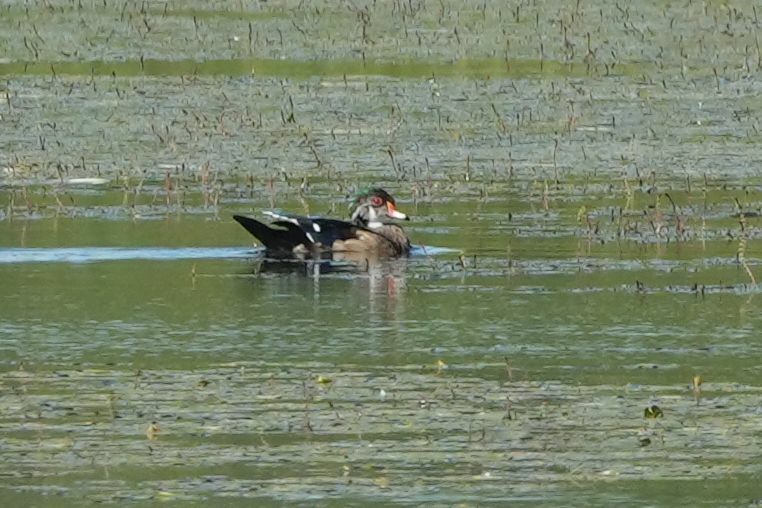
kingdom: Animalia
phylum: Chordata
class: Aves
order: Anseriformes
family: Anatidae
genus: Aix
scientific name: Aix sponsa
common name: Wood duck
